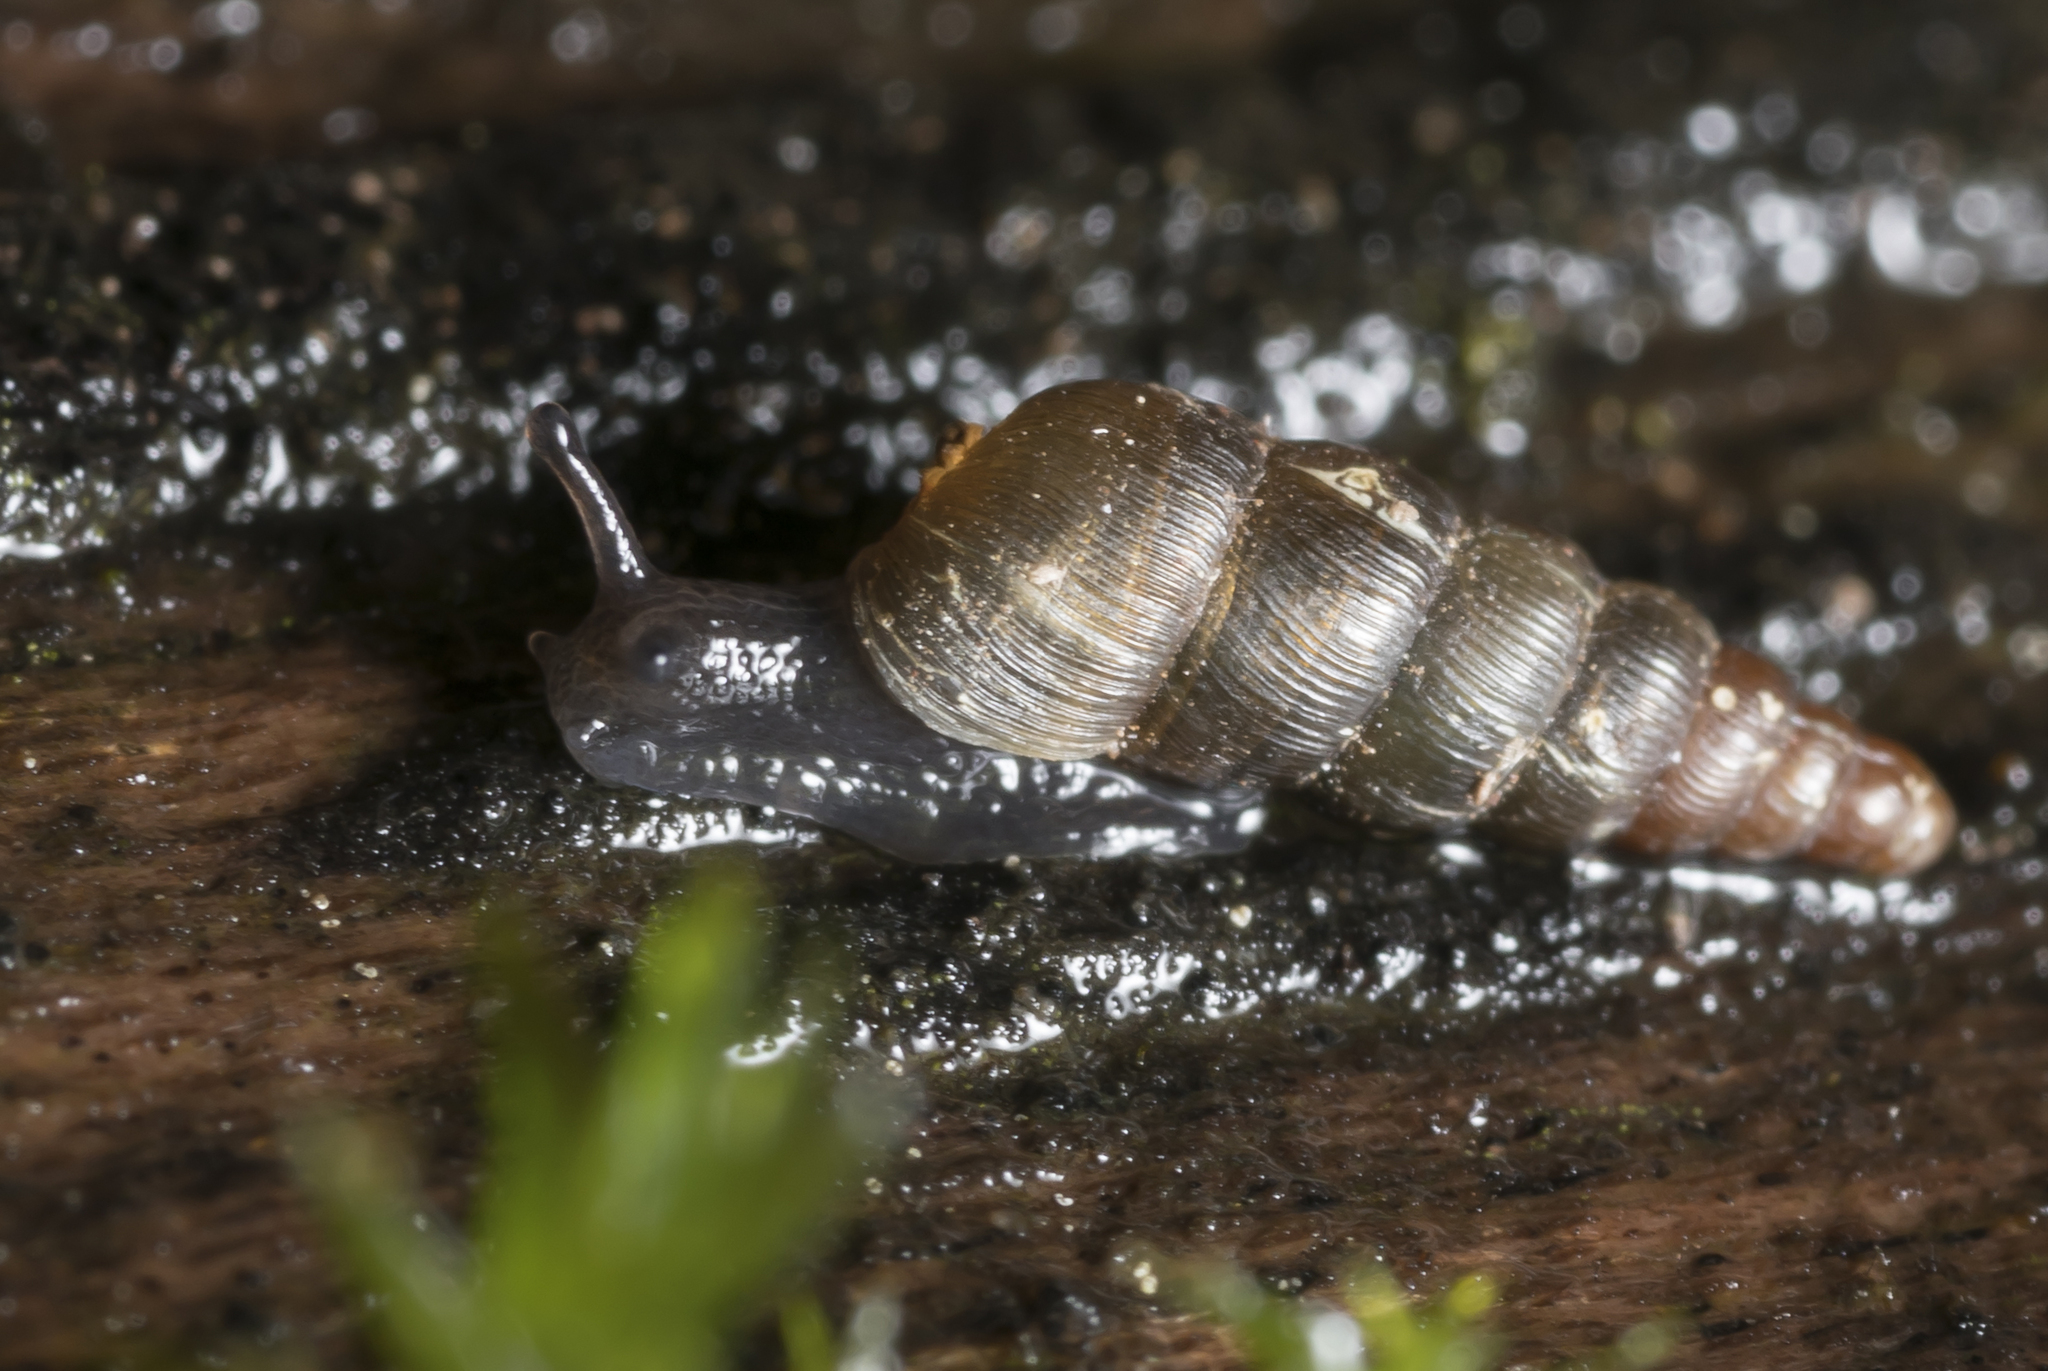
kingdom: Animalia
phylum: Mollusca
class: Gastropoda
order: Stylommatophora
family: Clausiliidae
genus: Balea
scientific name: Balea perversa
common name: Tree snail
